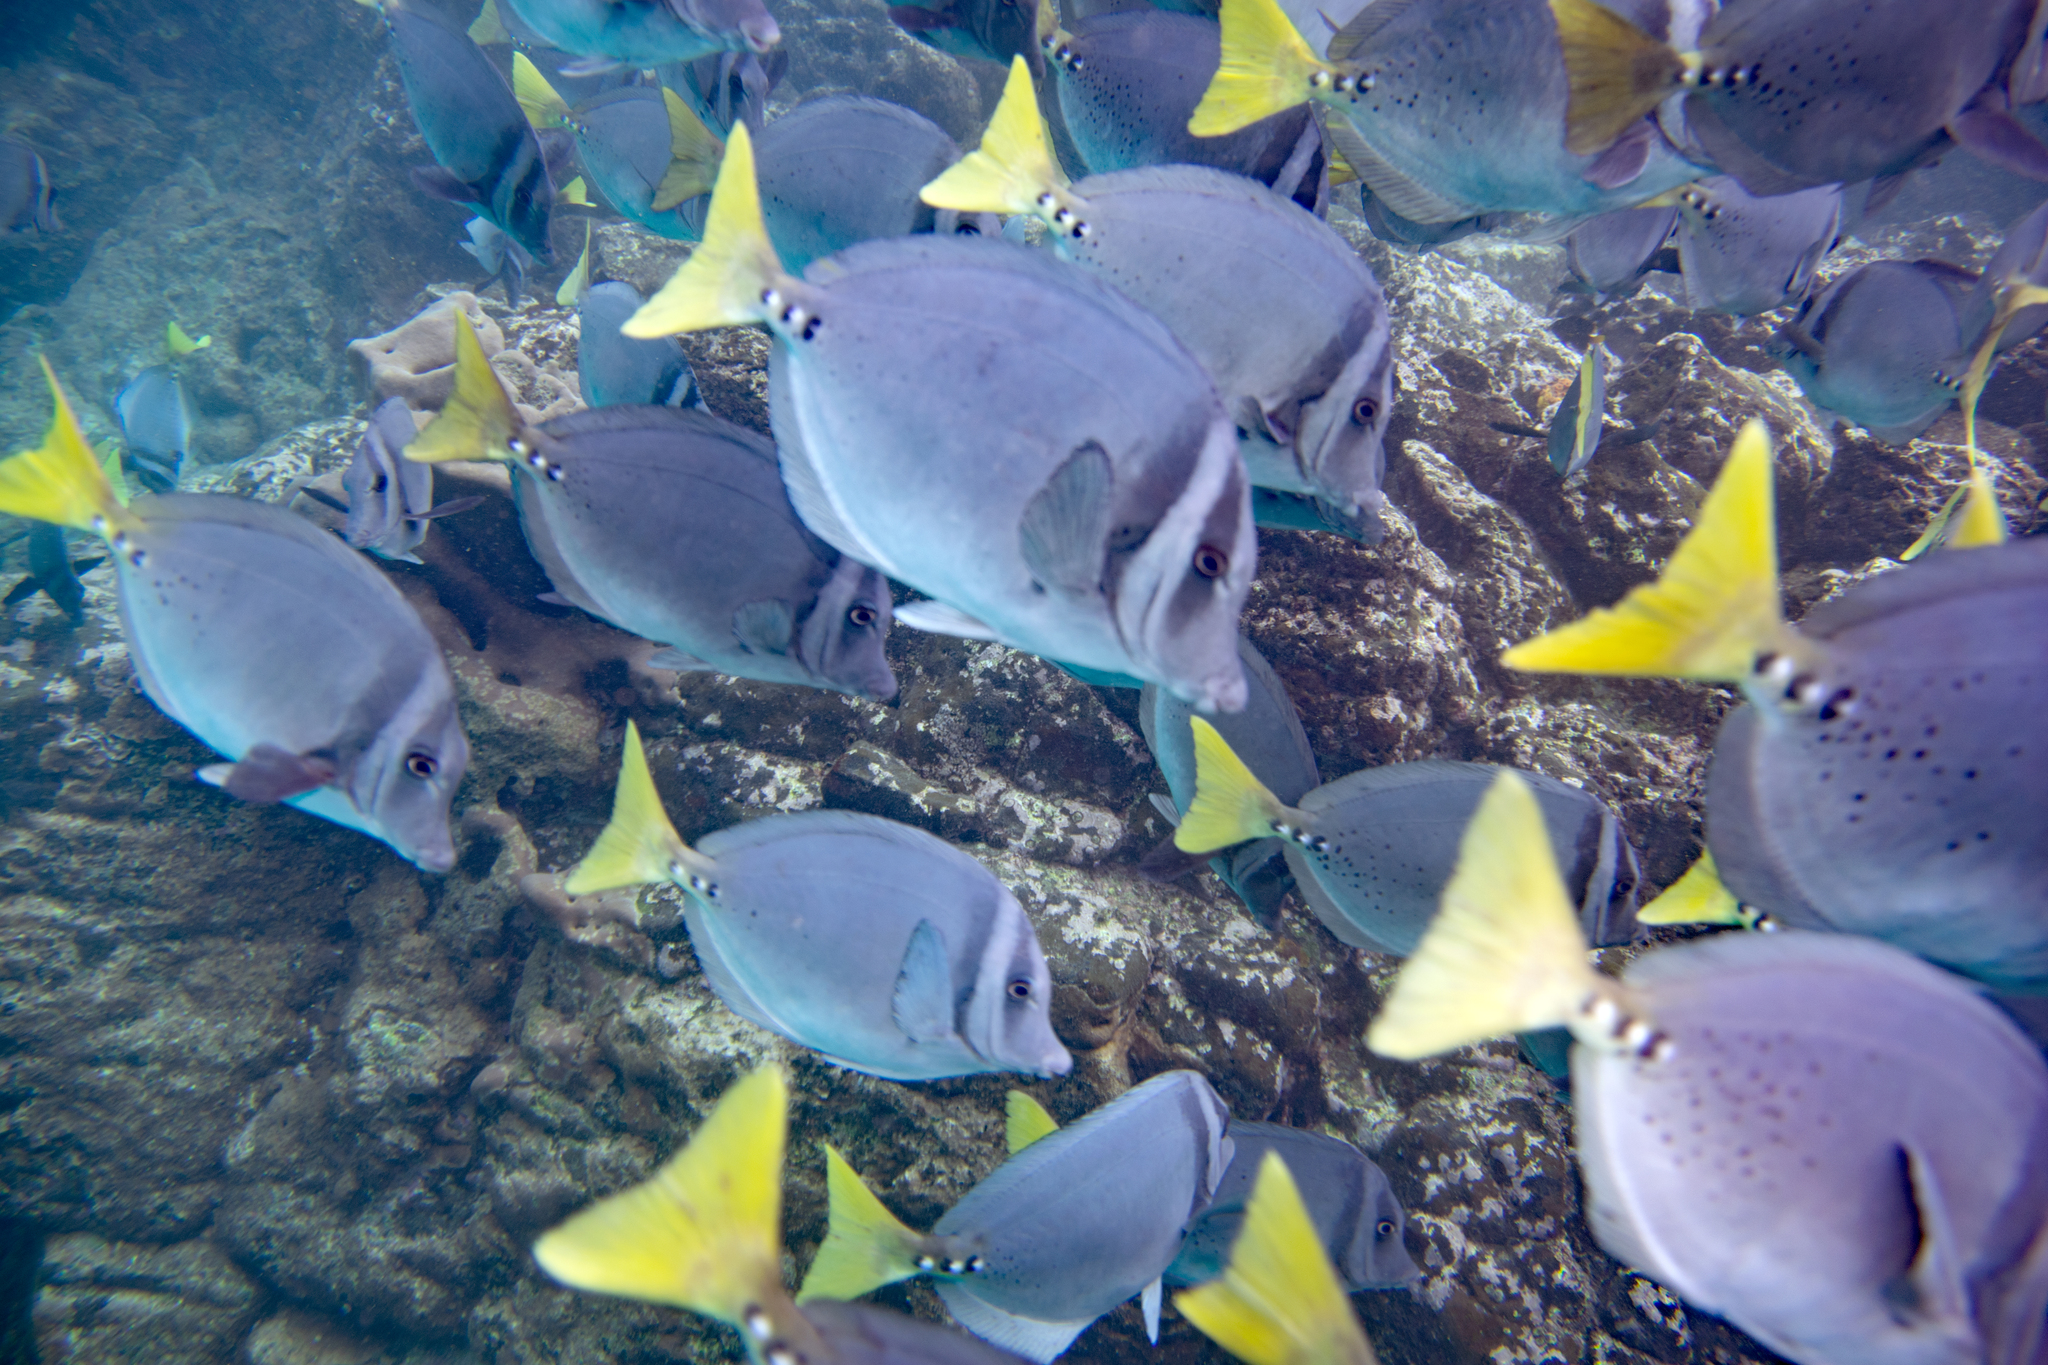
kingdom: Animalia
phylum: Chordata
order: Perciformes
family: Acanthuridae
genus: Prionurus
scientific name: Prionurus laticlavius
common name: Razor surgeonfish
